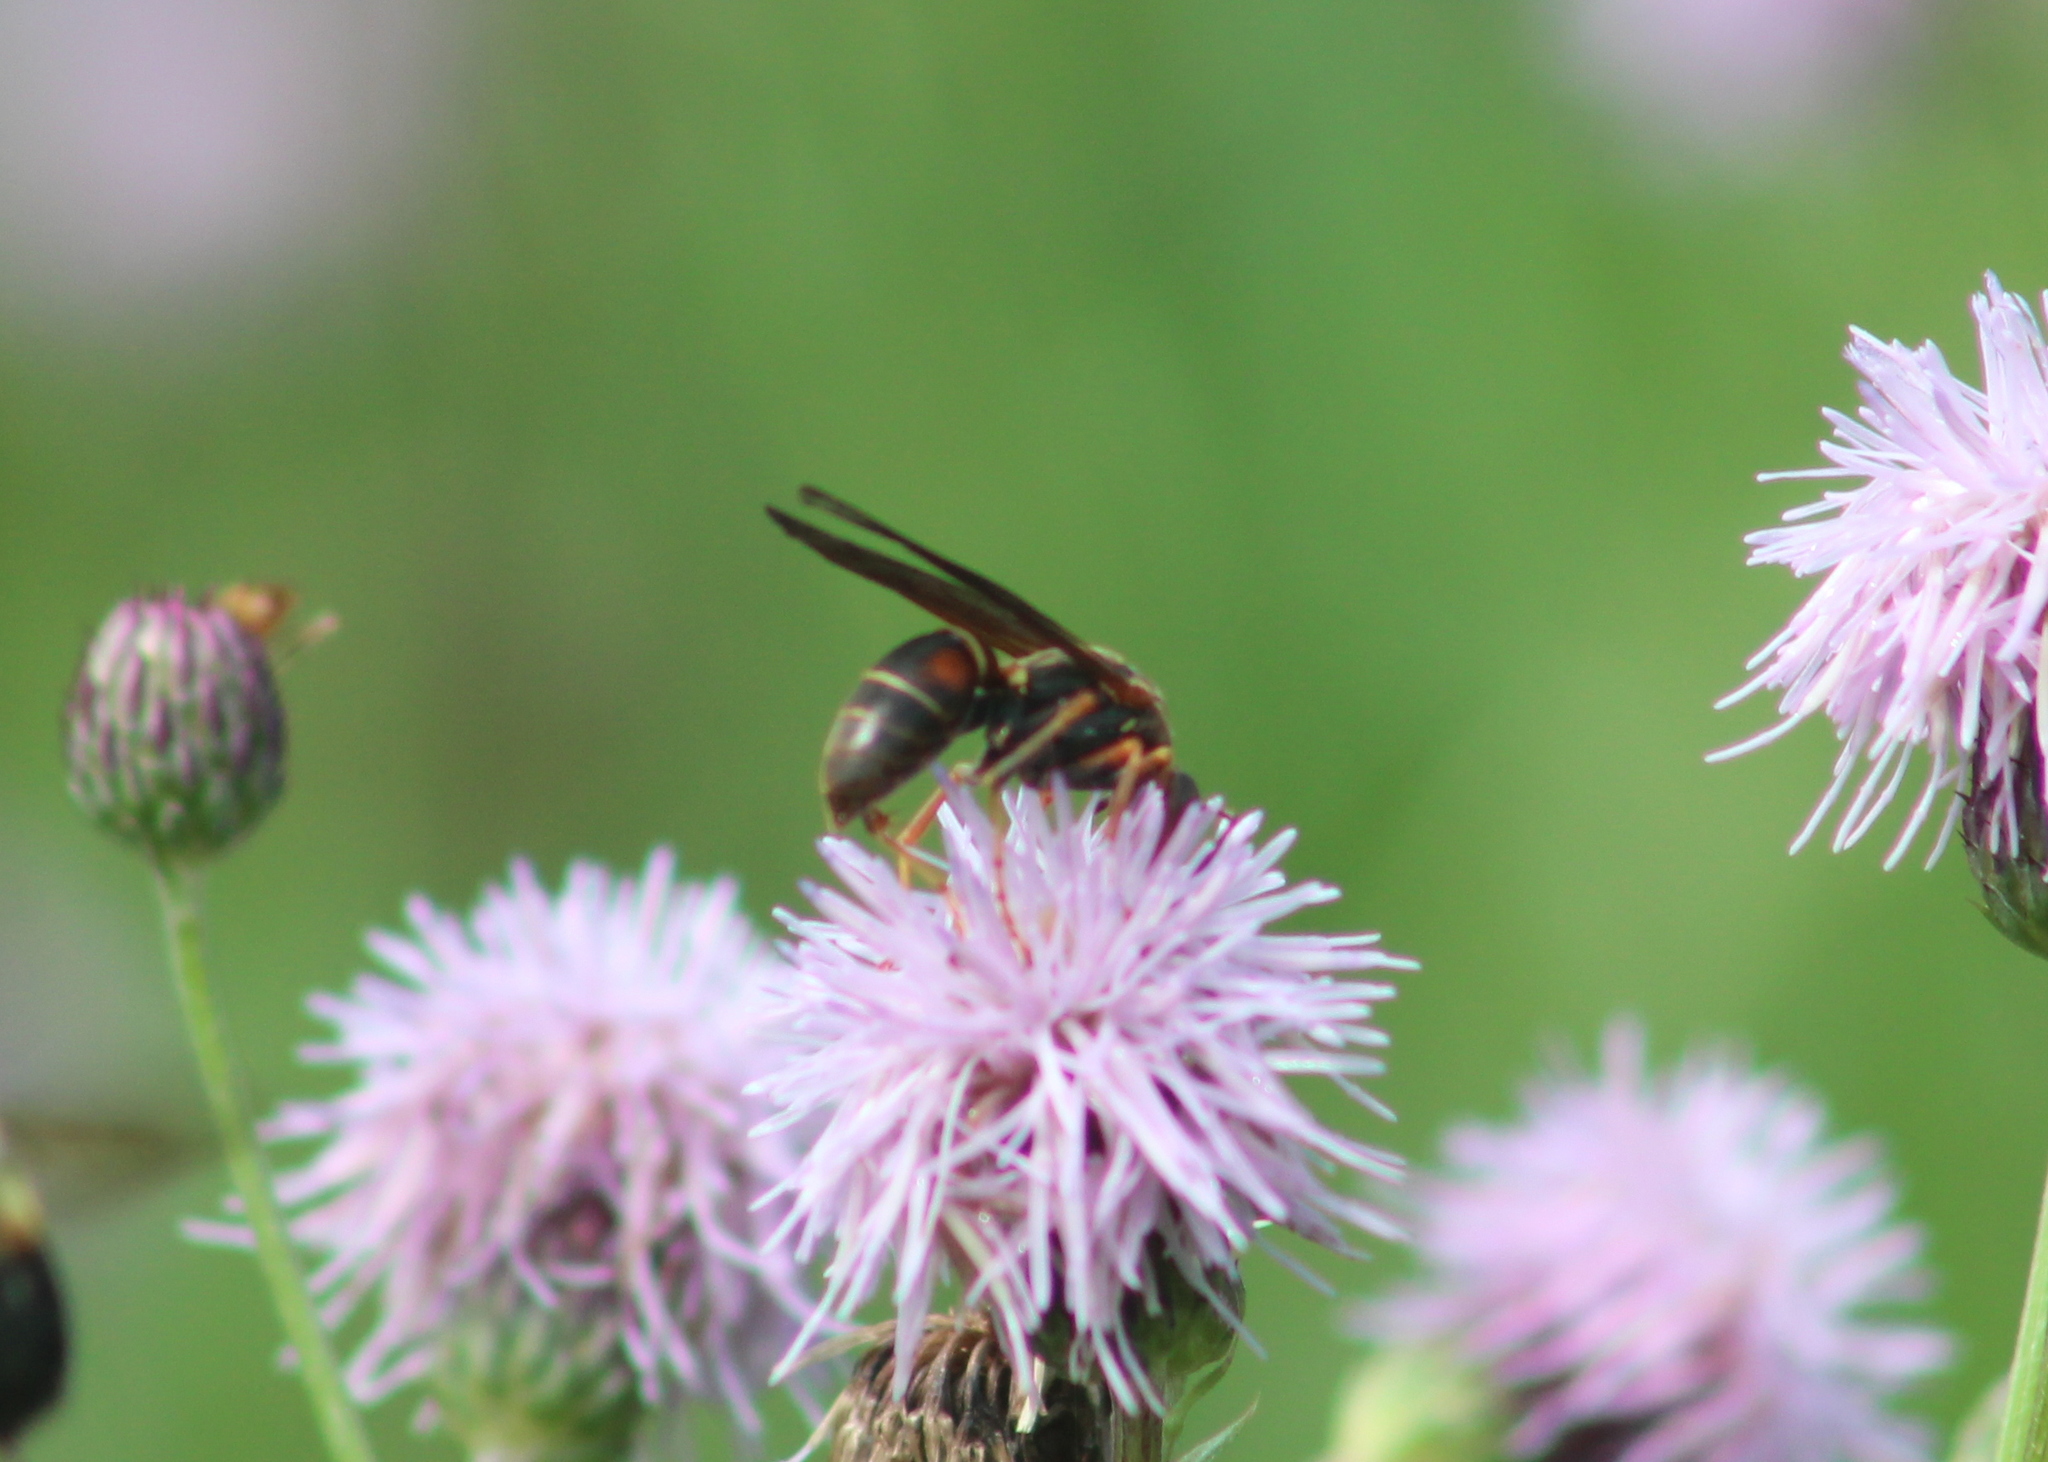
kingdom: Animalia
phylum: Arthropoda
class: Insecta
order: Hymenoptera
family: Eumenidae
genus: Polistes
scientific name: Polistes fuscatus
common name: Dark paper wasp
